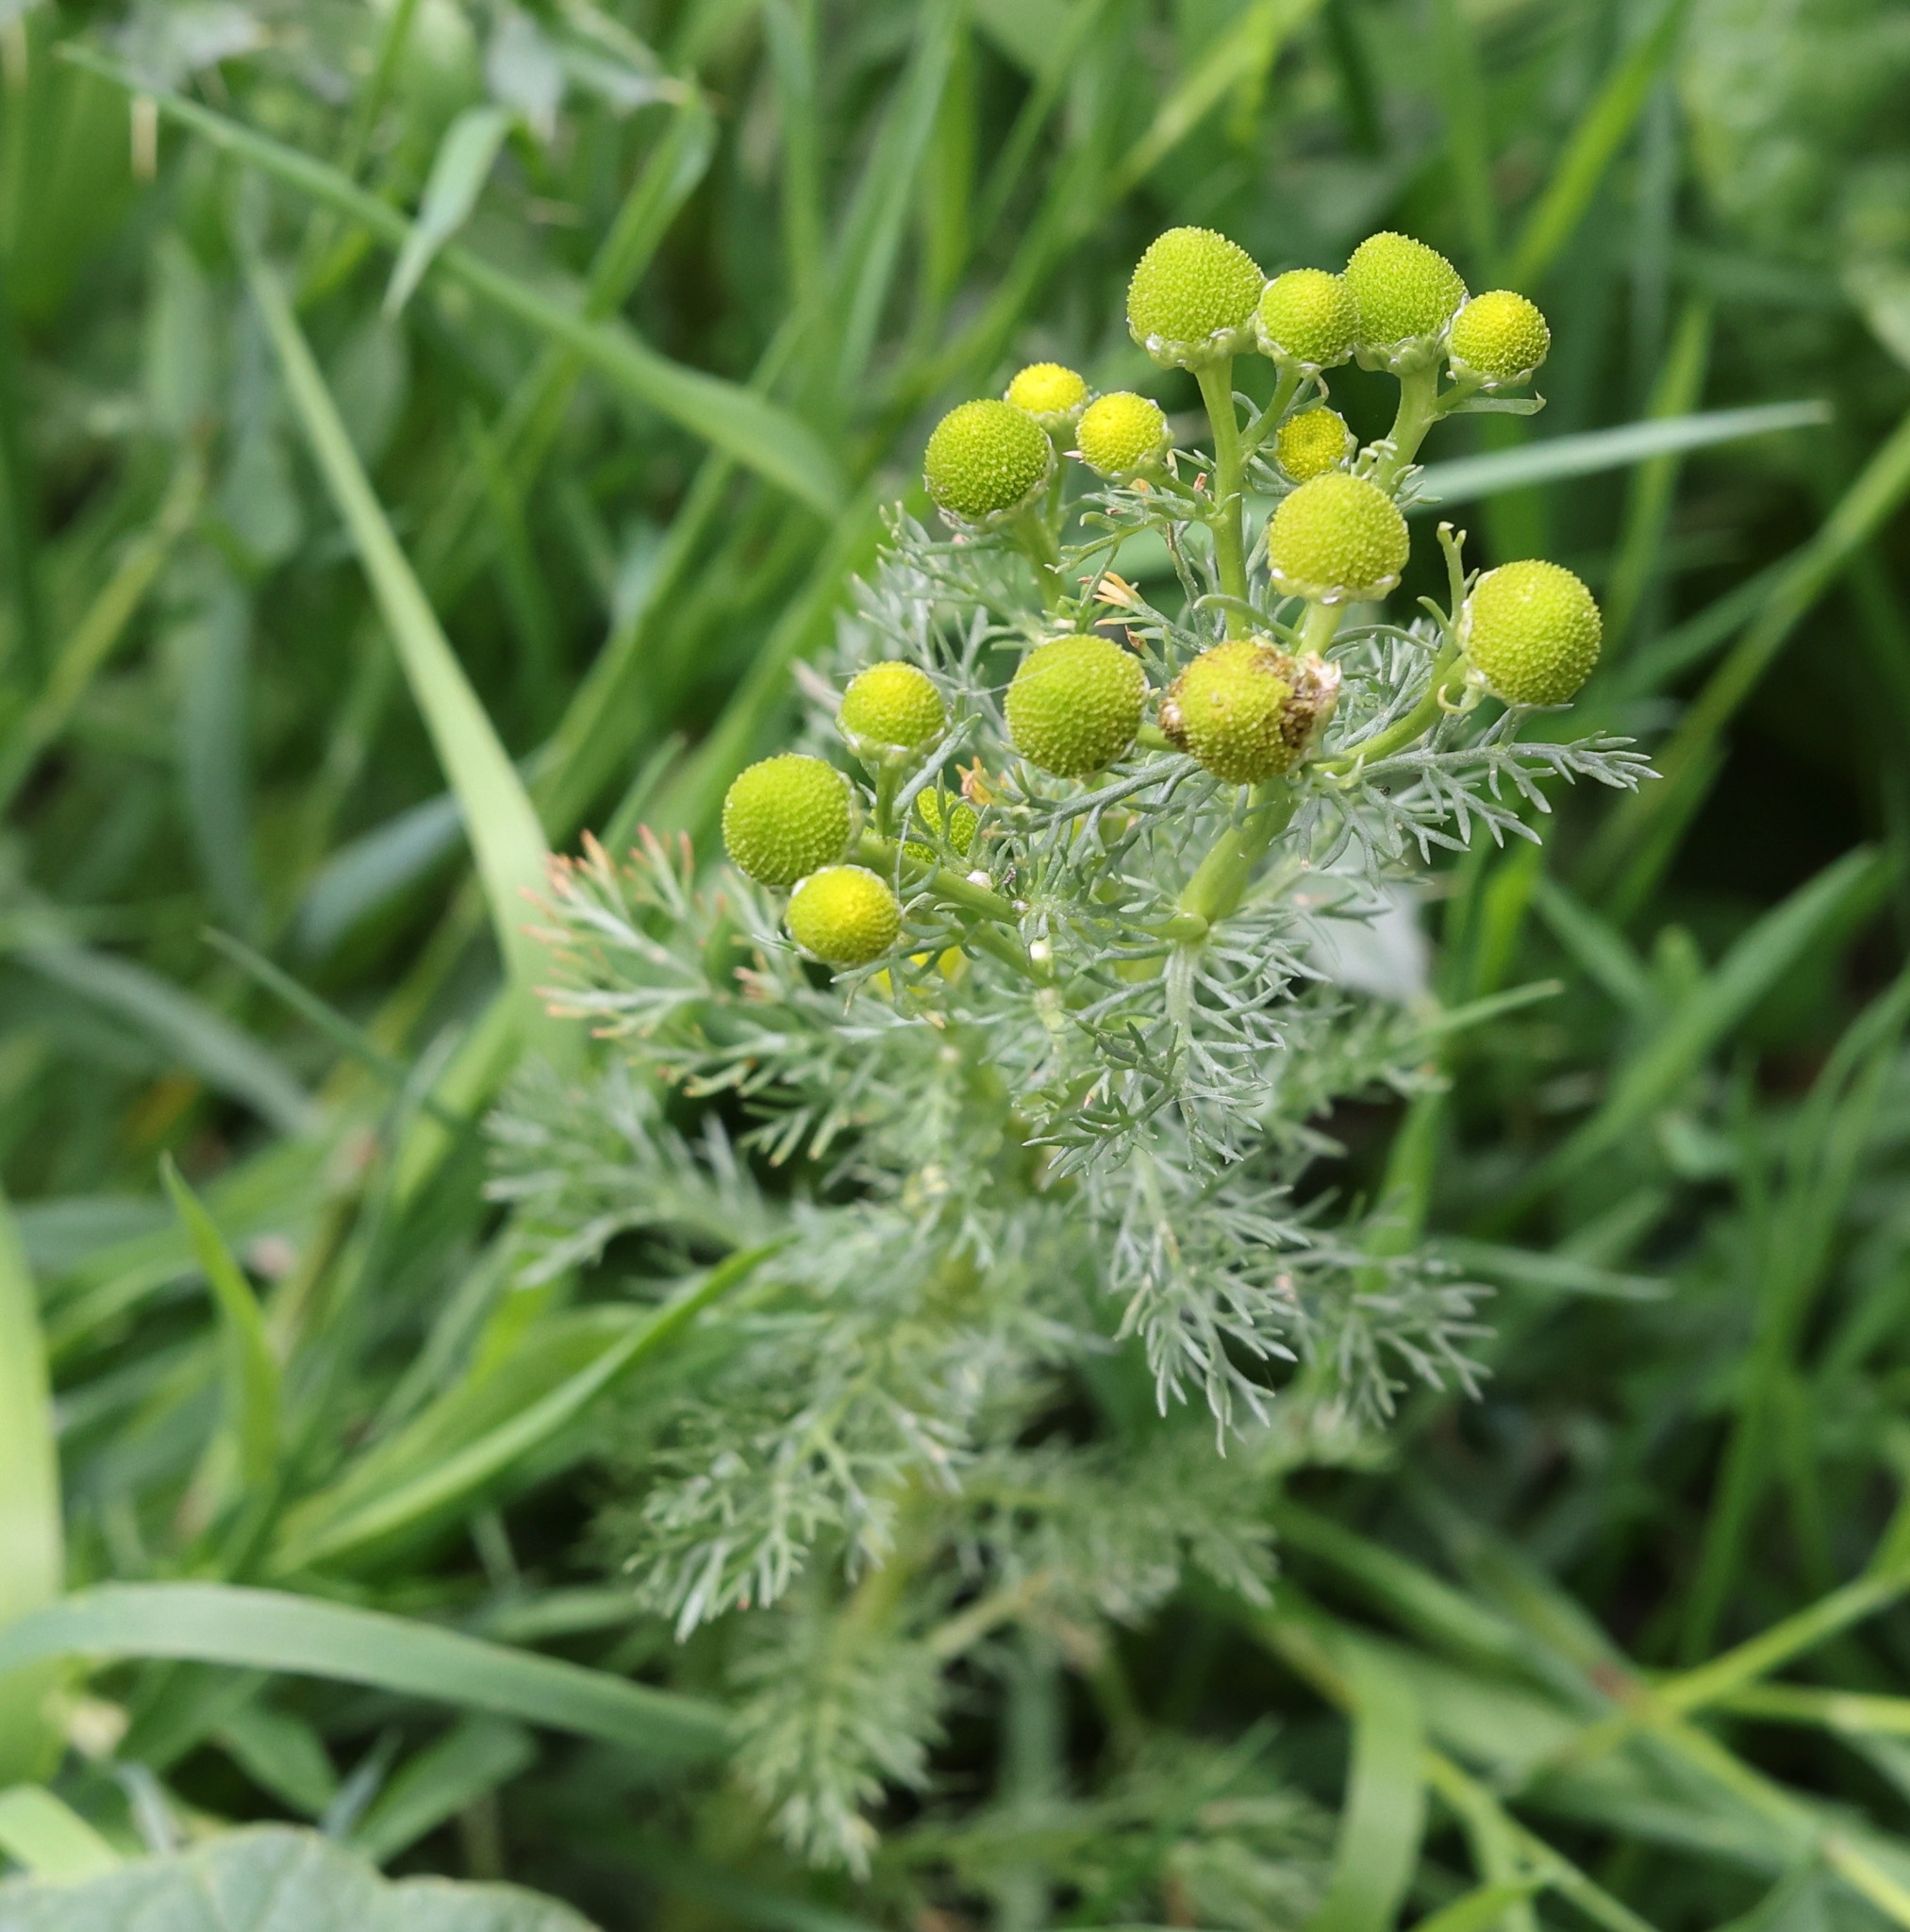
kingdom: Plantae
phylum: Tracheophyta
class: Magnoliopsida
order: Asterales
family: Asteraceae
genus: Matricaria
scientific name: Matricaria discoidea
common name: Disc mayweed
